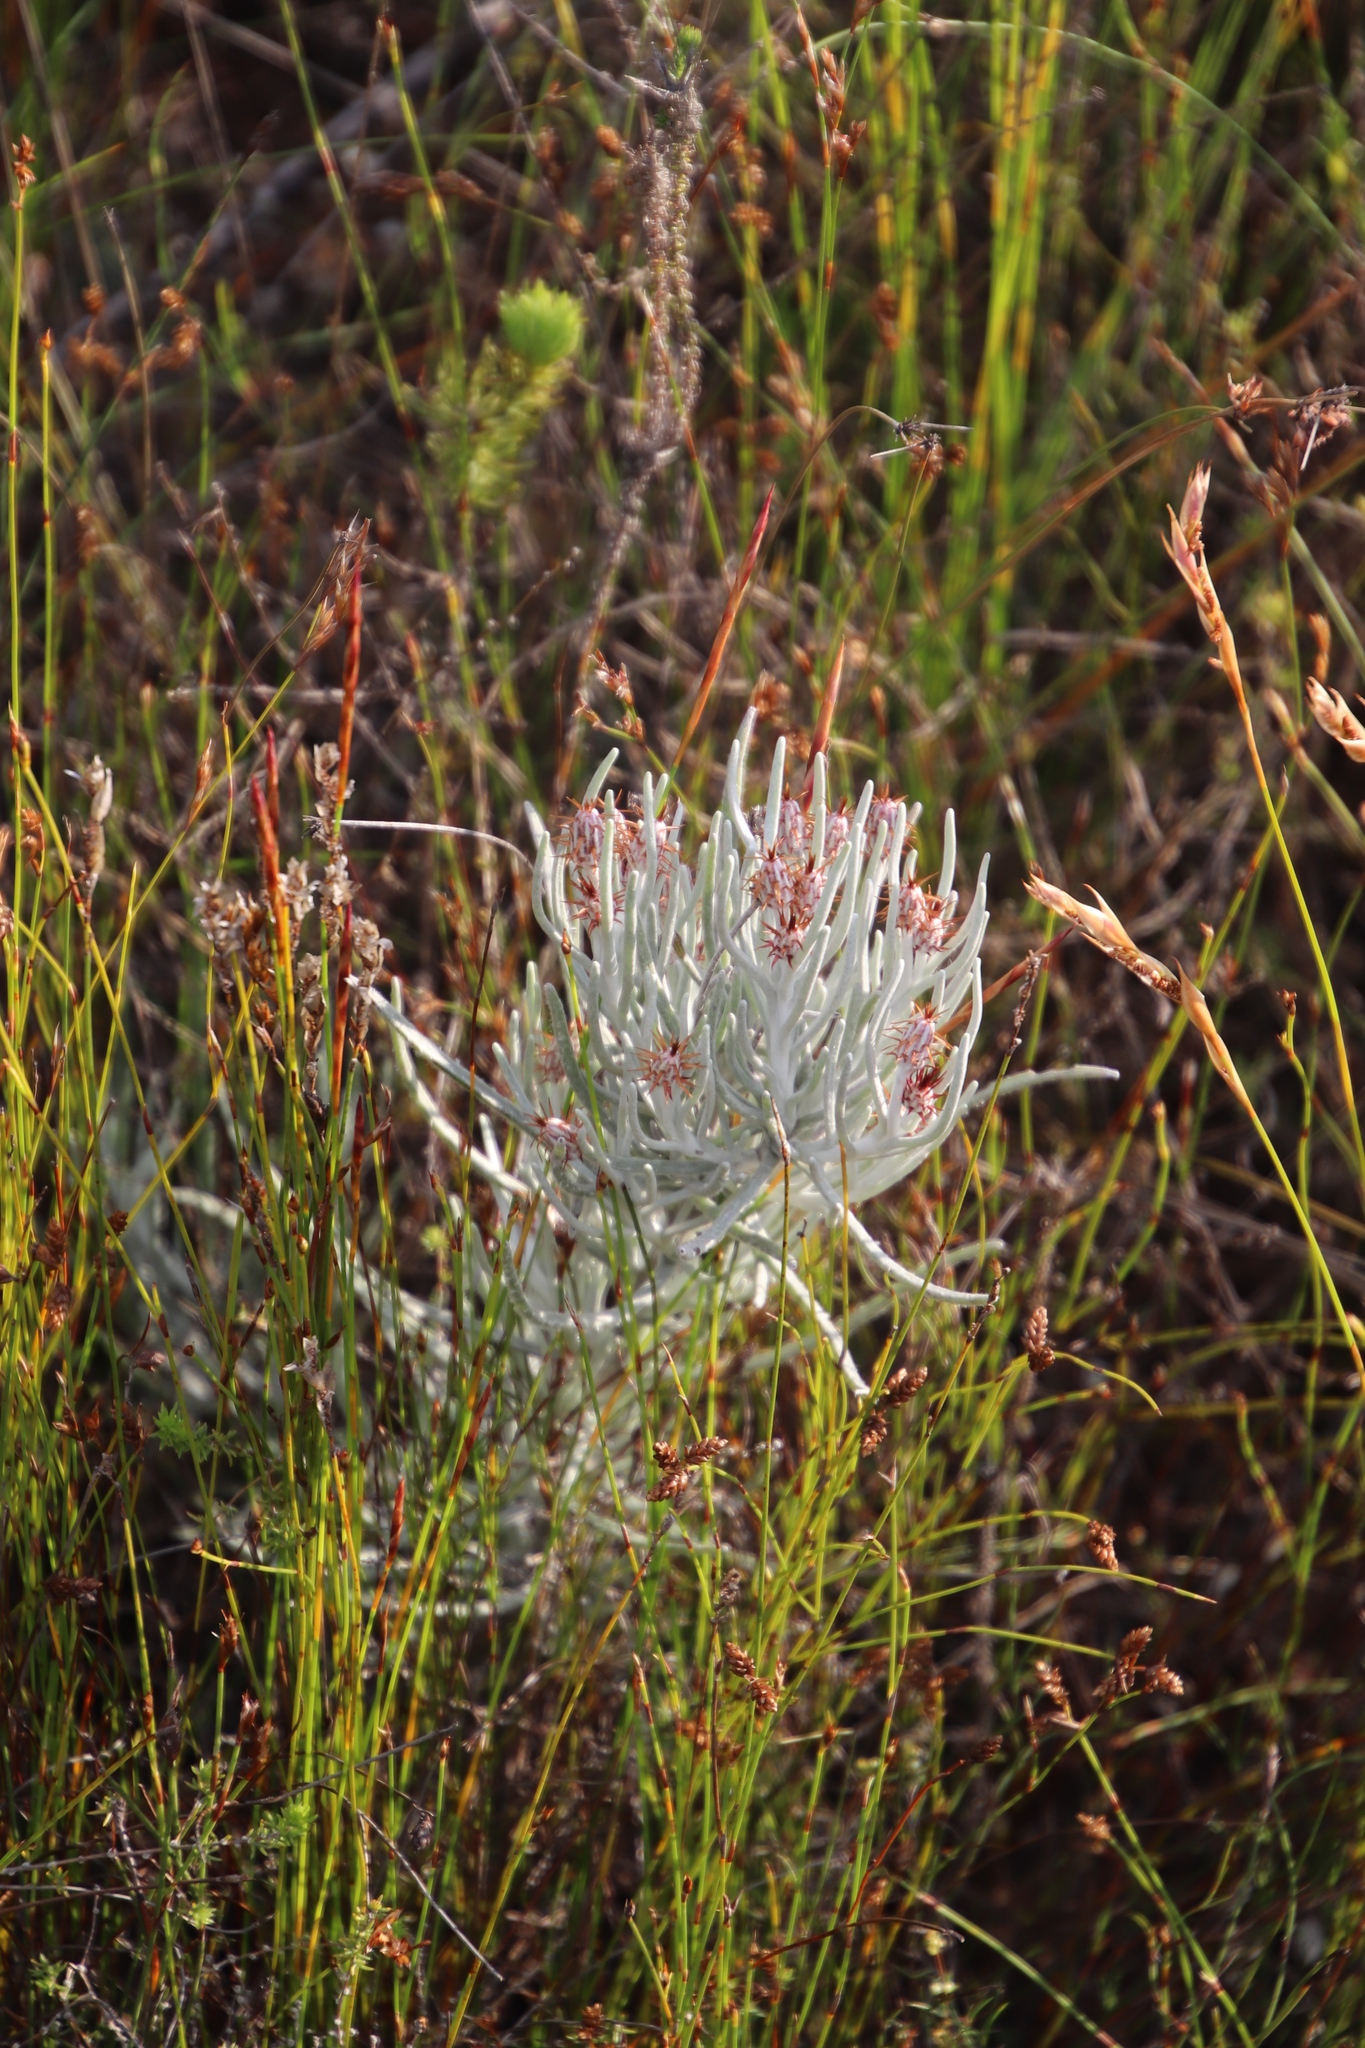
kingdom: Plantae
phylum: Tracheophyta
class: Magnoliopsida
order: Asterales
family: Asteraceae
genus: Syncarpha
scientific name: Syncarpha gnaphaloides
